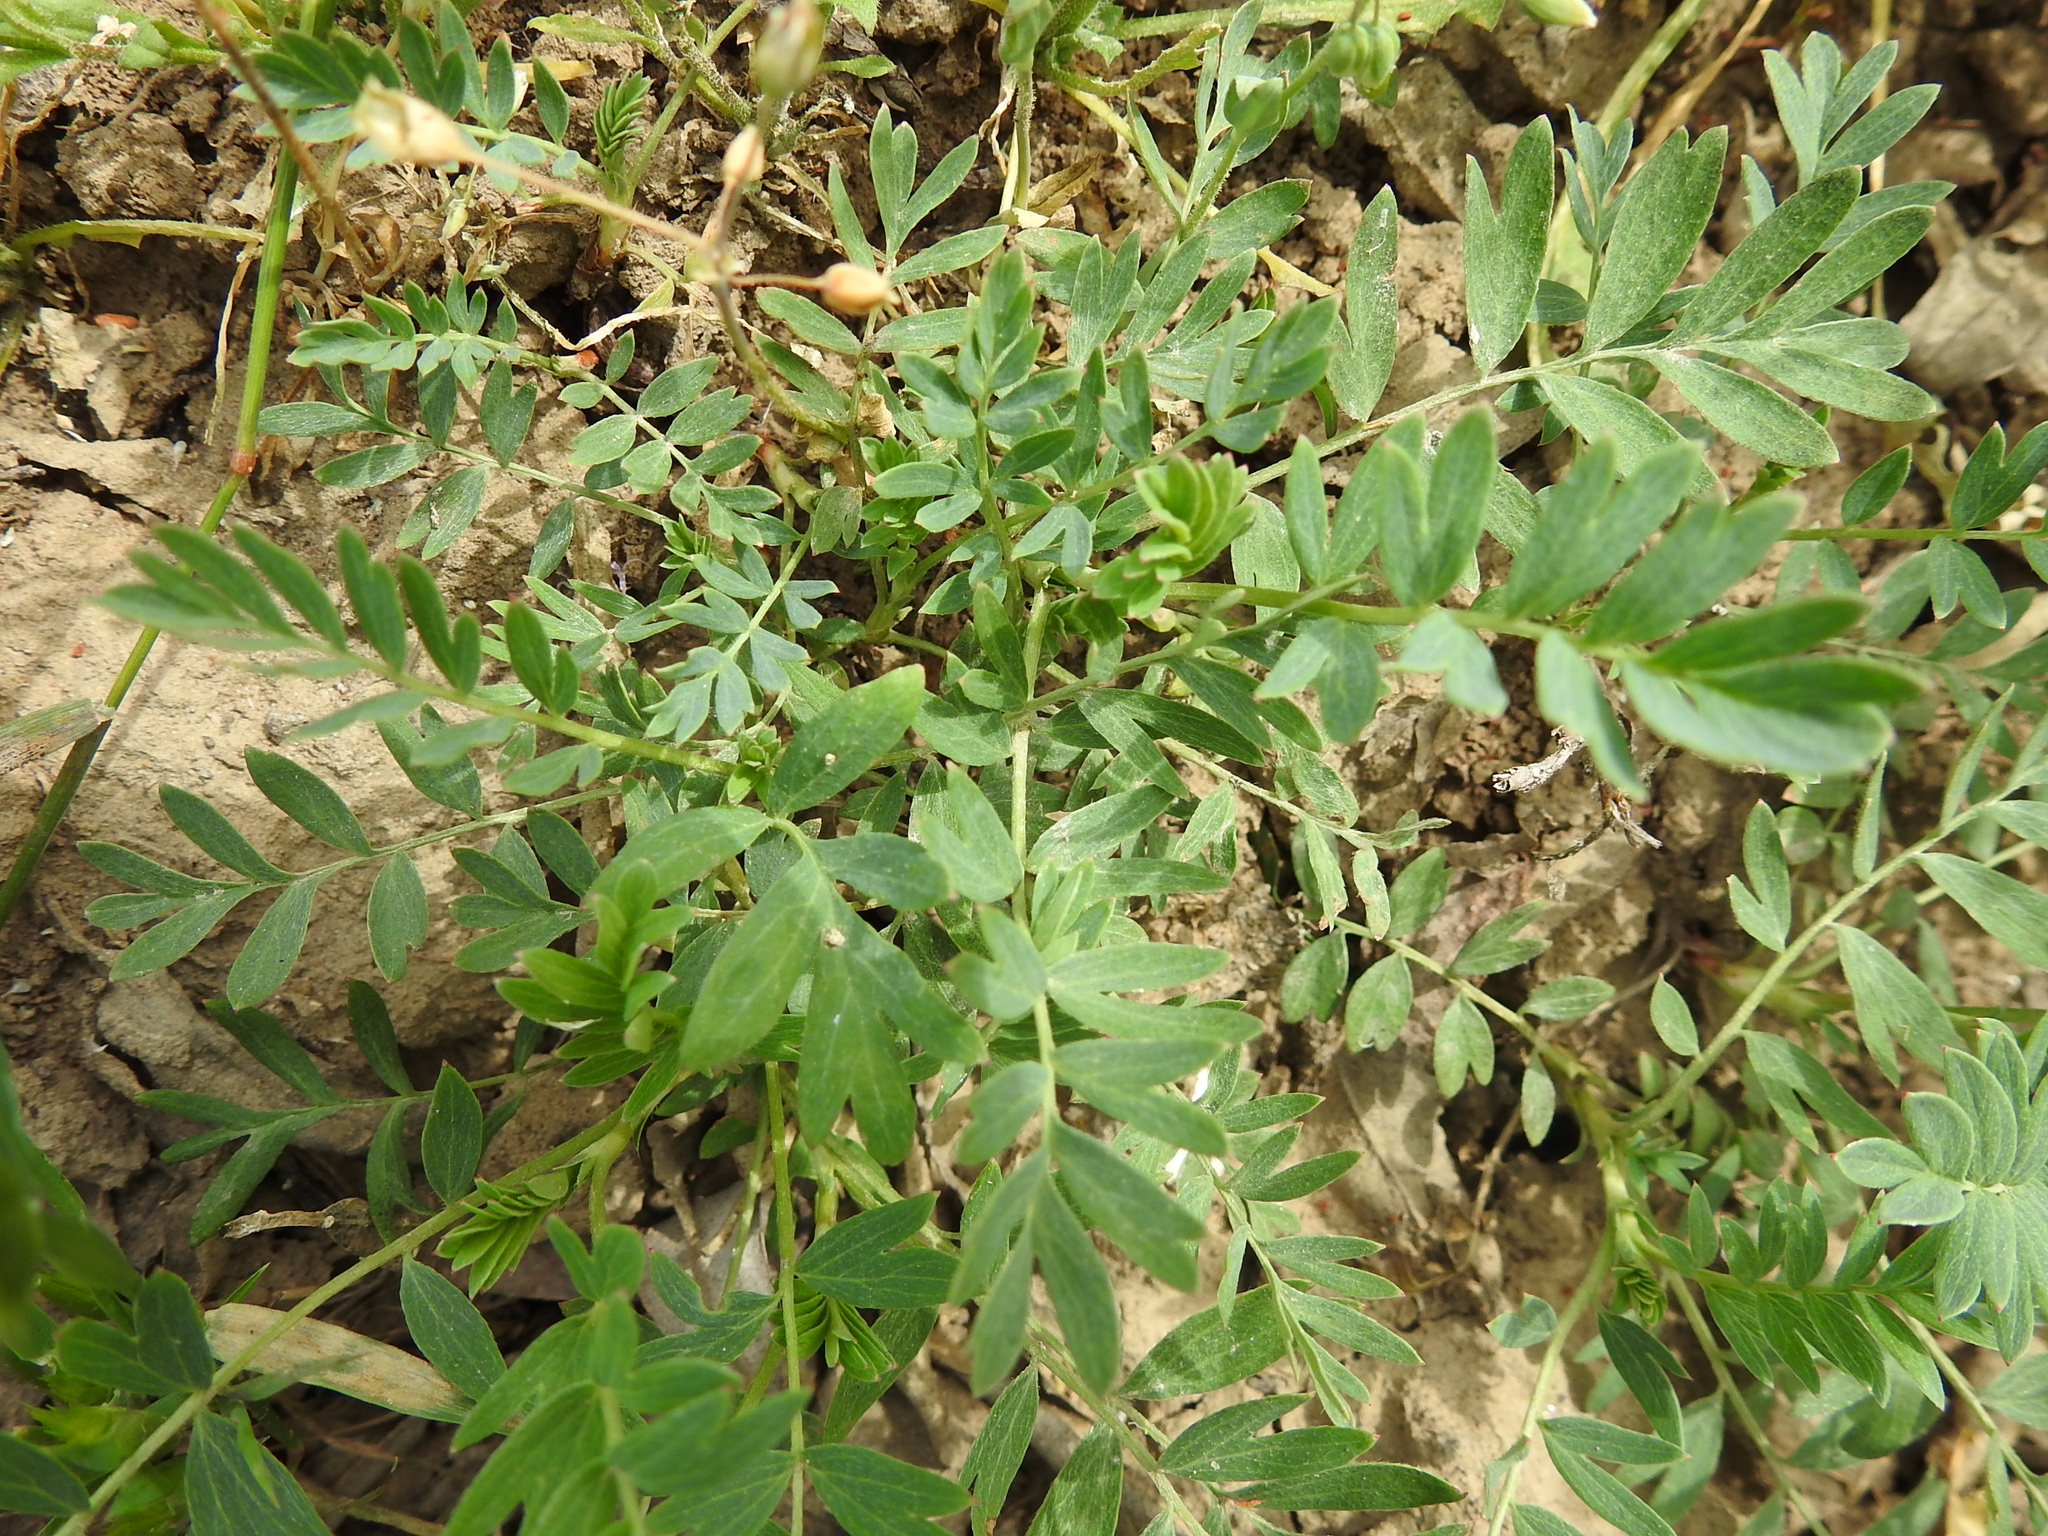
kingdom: Plantae
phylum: Tracheophyta
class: Magnoliopsida
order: Rosales
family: Rosaceae
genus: Sibbaldianthe
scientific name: Sibbaldianthe bifurca
